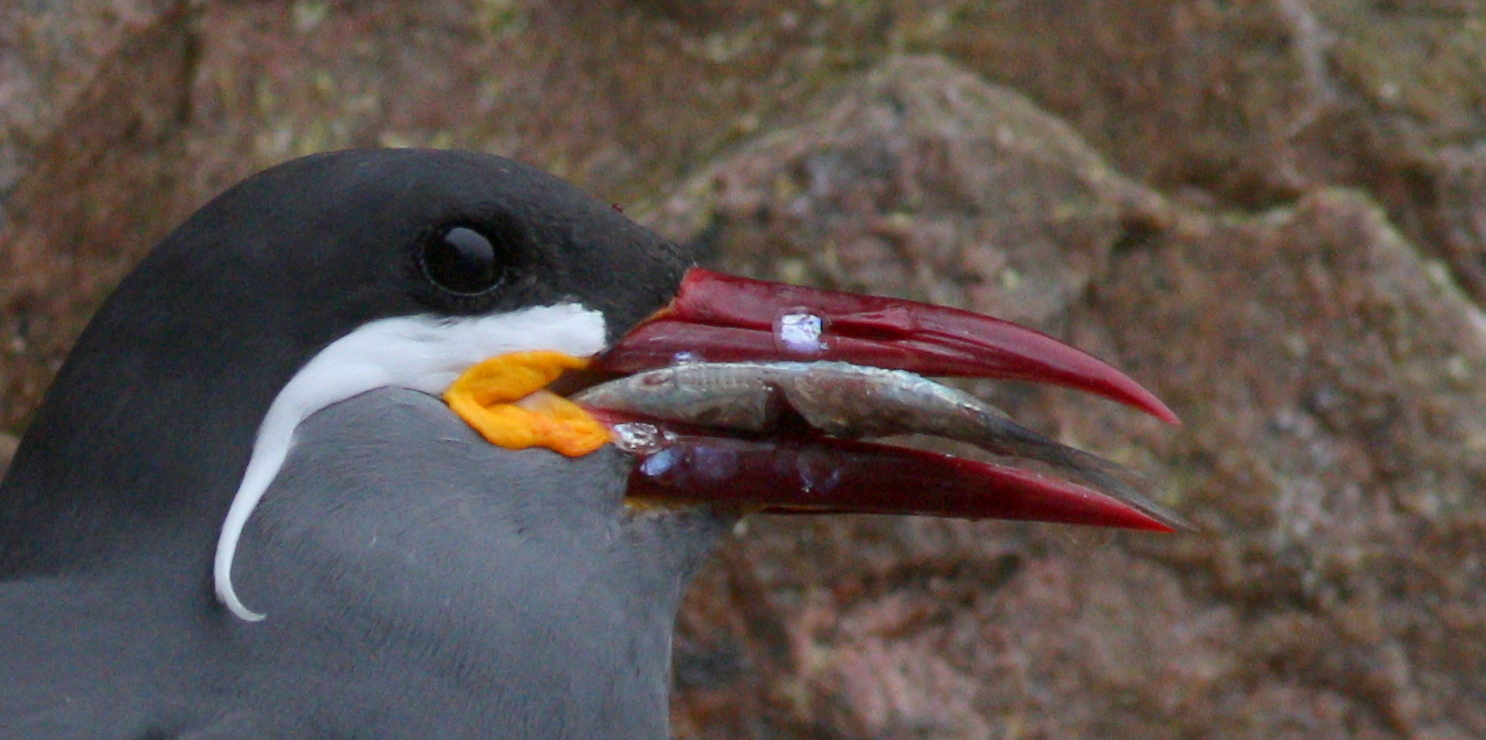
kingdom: Animalia
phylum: Chordata
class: Aves
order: Charadriiformes
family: Laridae
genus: Larosterna
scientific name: Larosterna inca
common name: Inca tern
